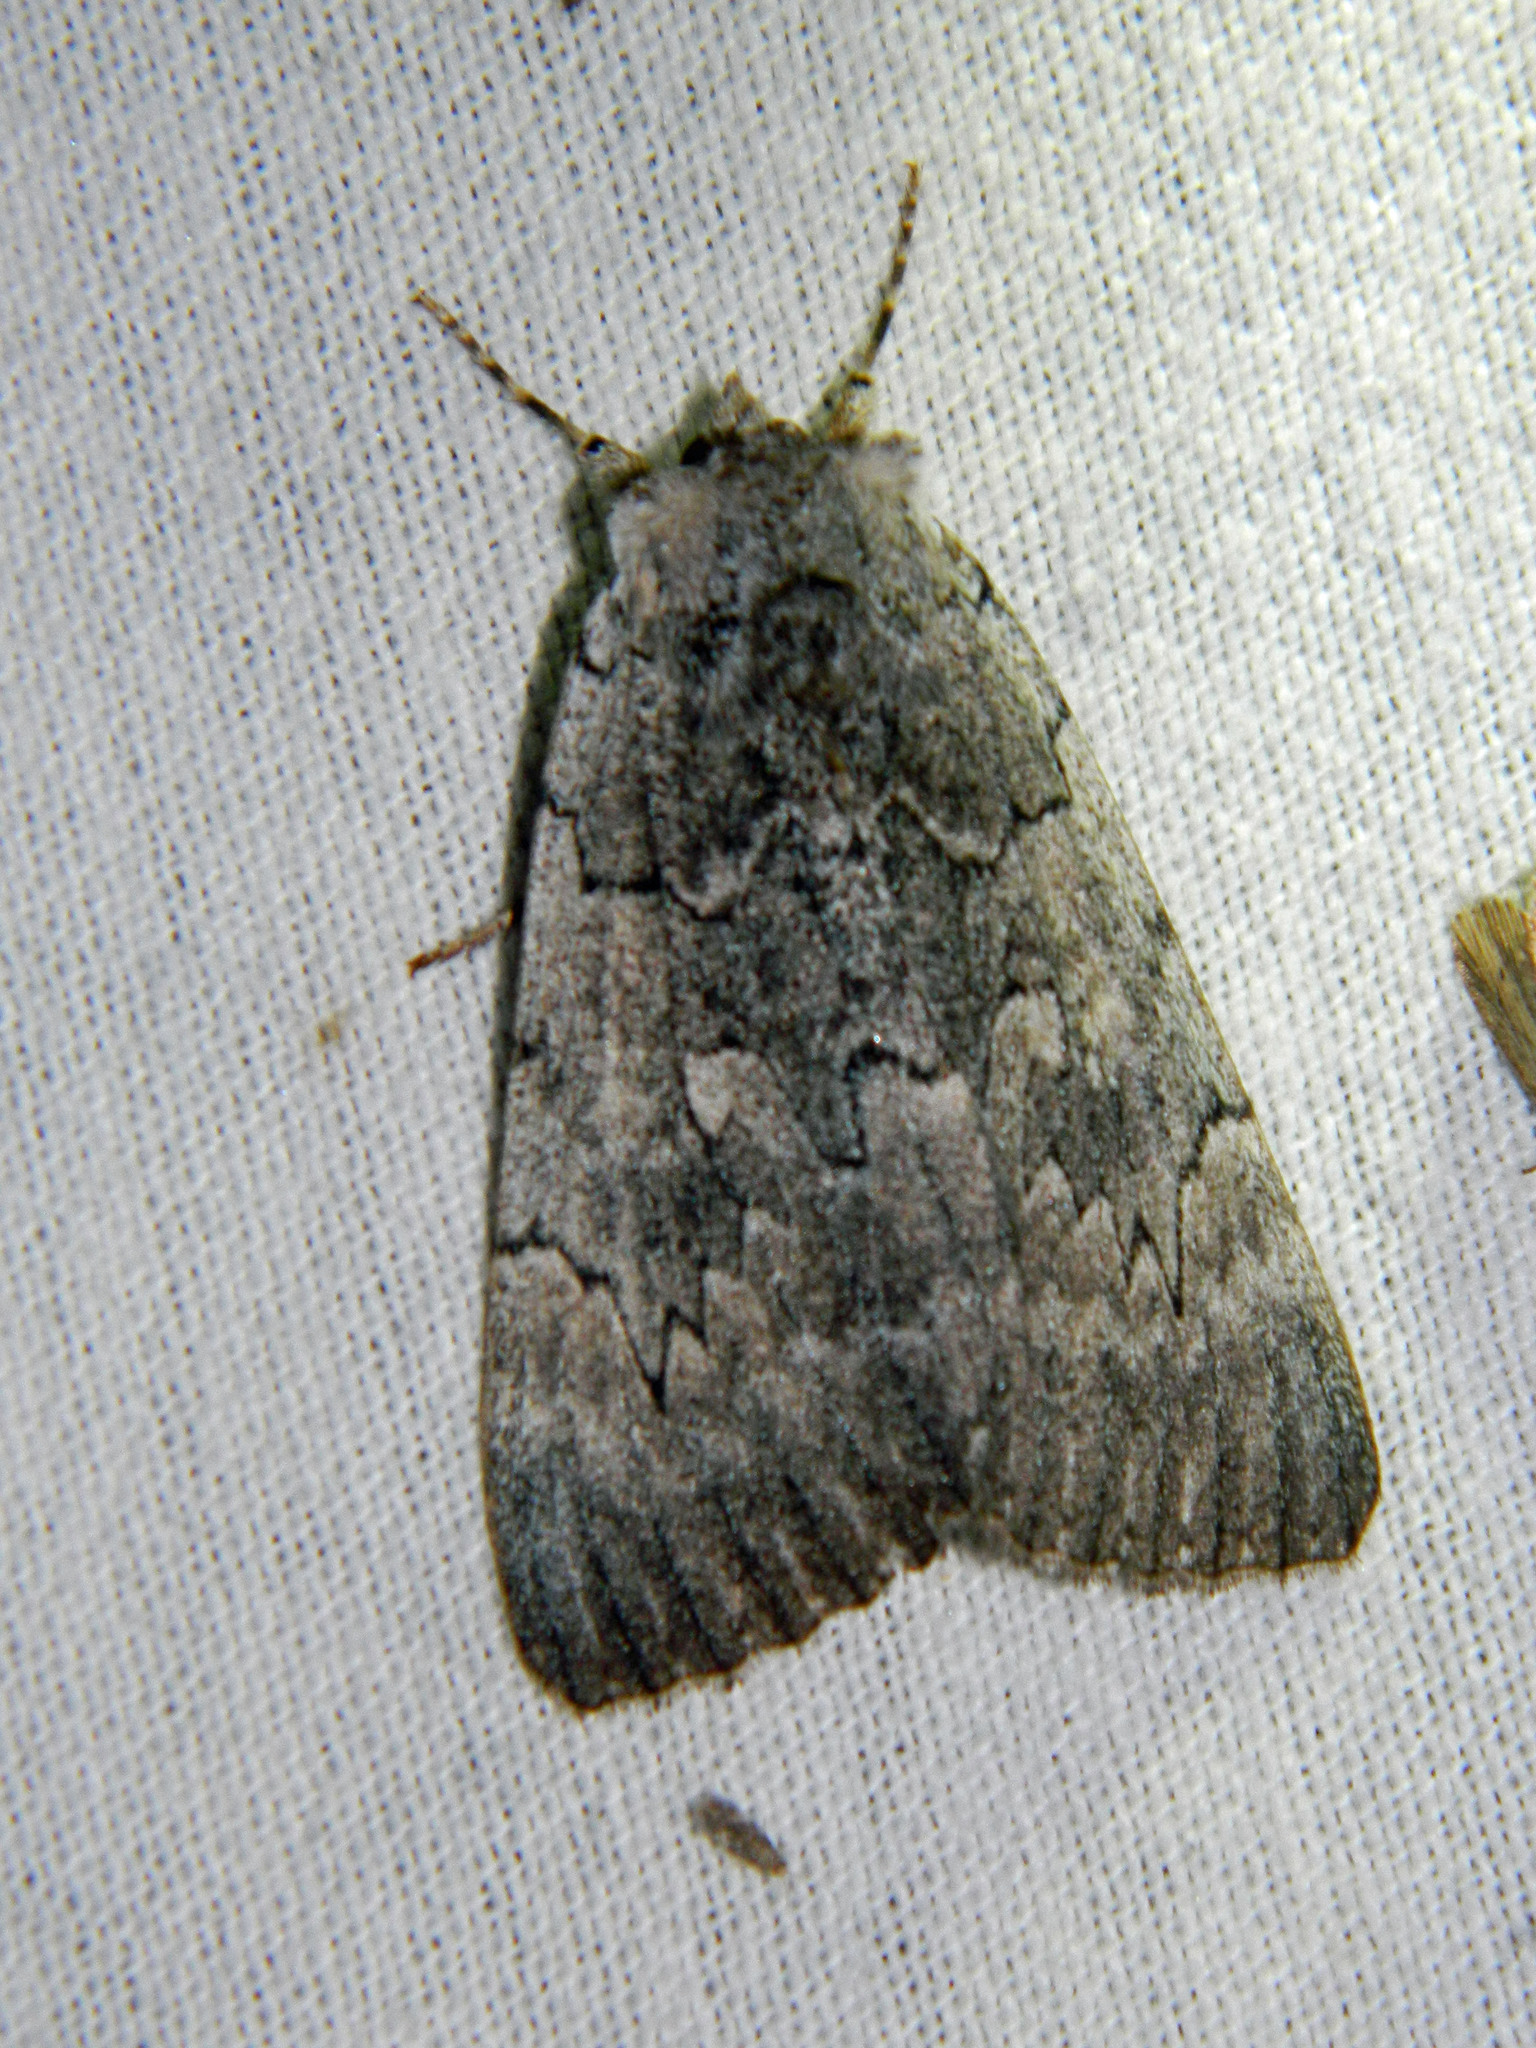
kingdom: Animalia
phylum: Arthropoda
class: Insecta
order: Lepidoptera
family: Erebidae
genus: Catocala
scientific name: Catocala concumbens
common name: Pink underwing
